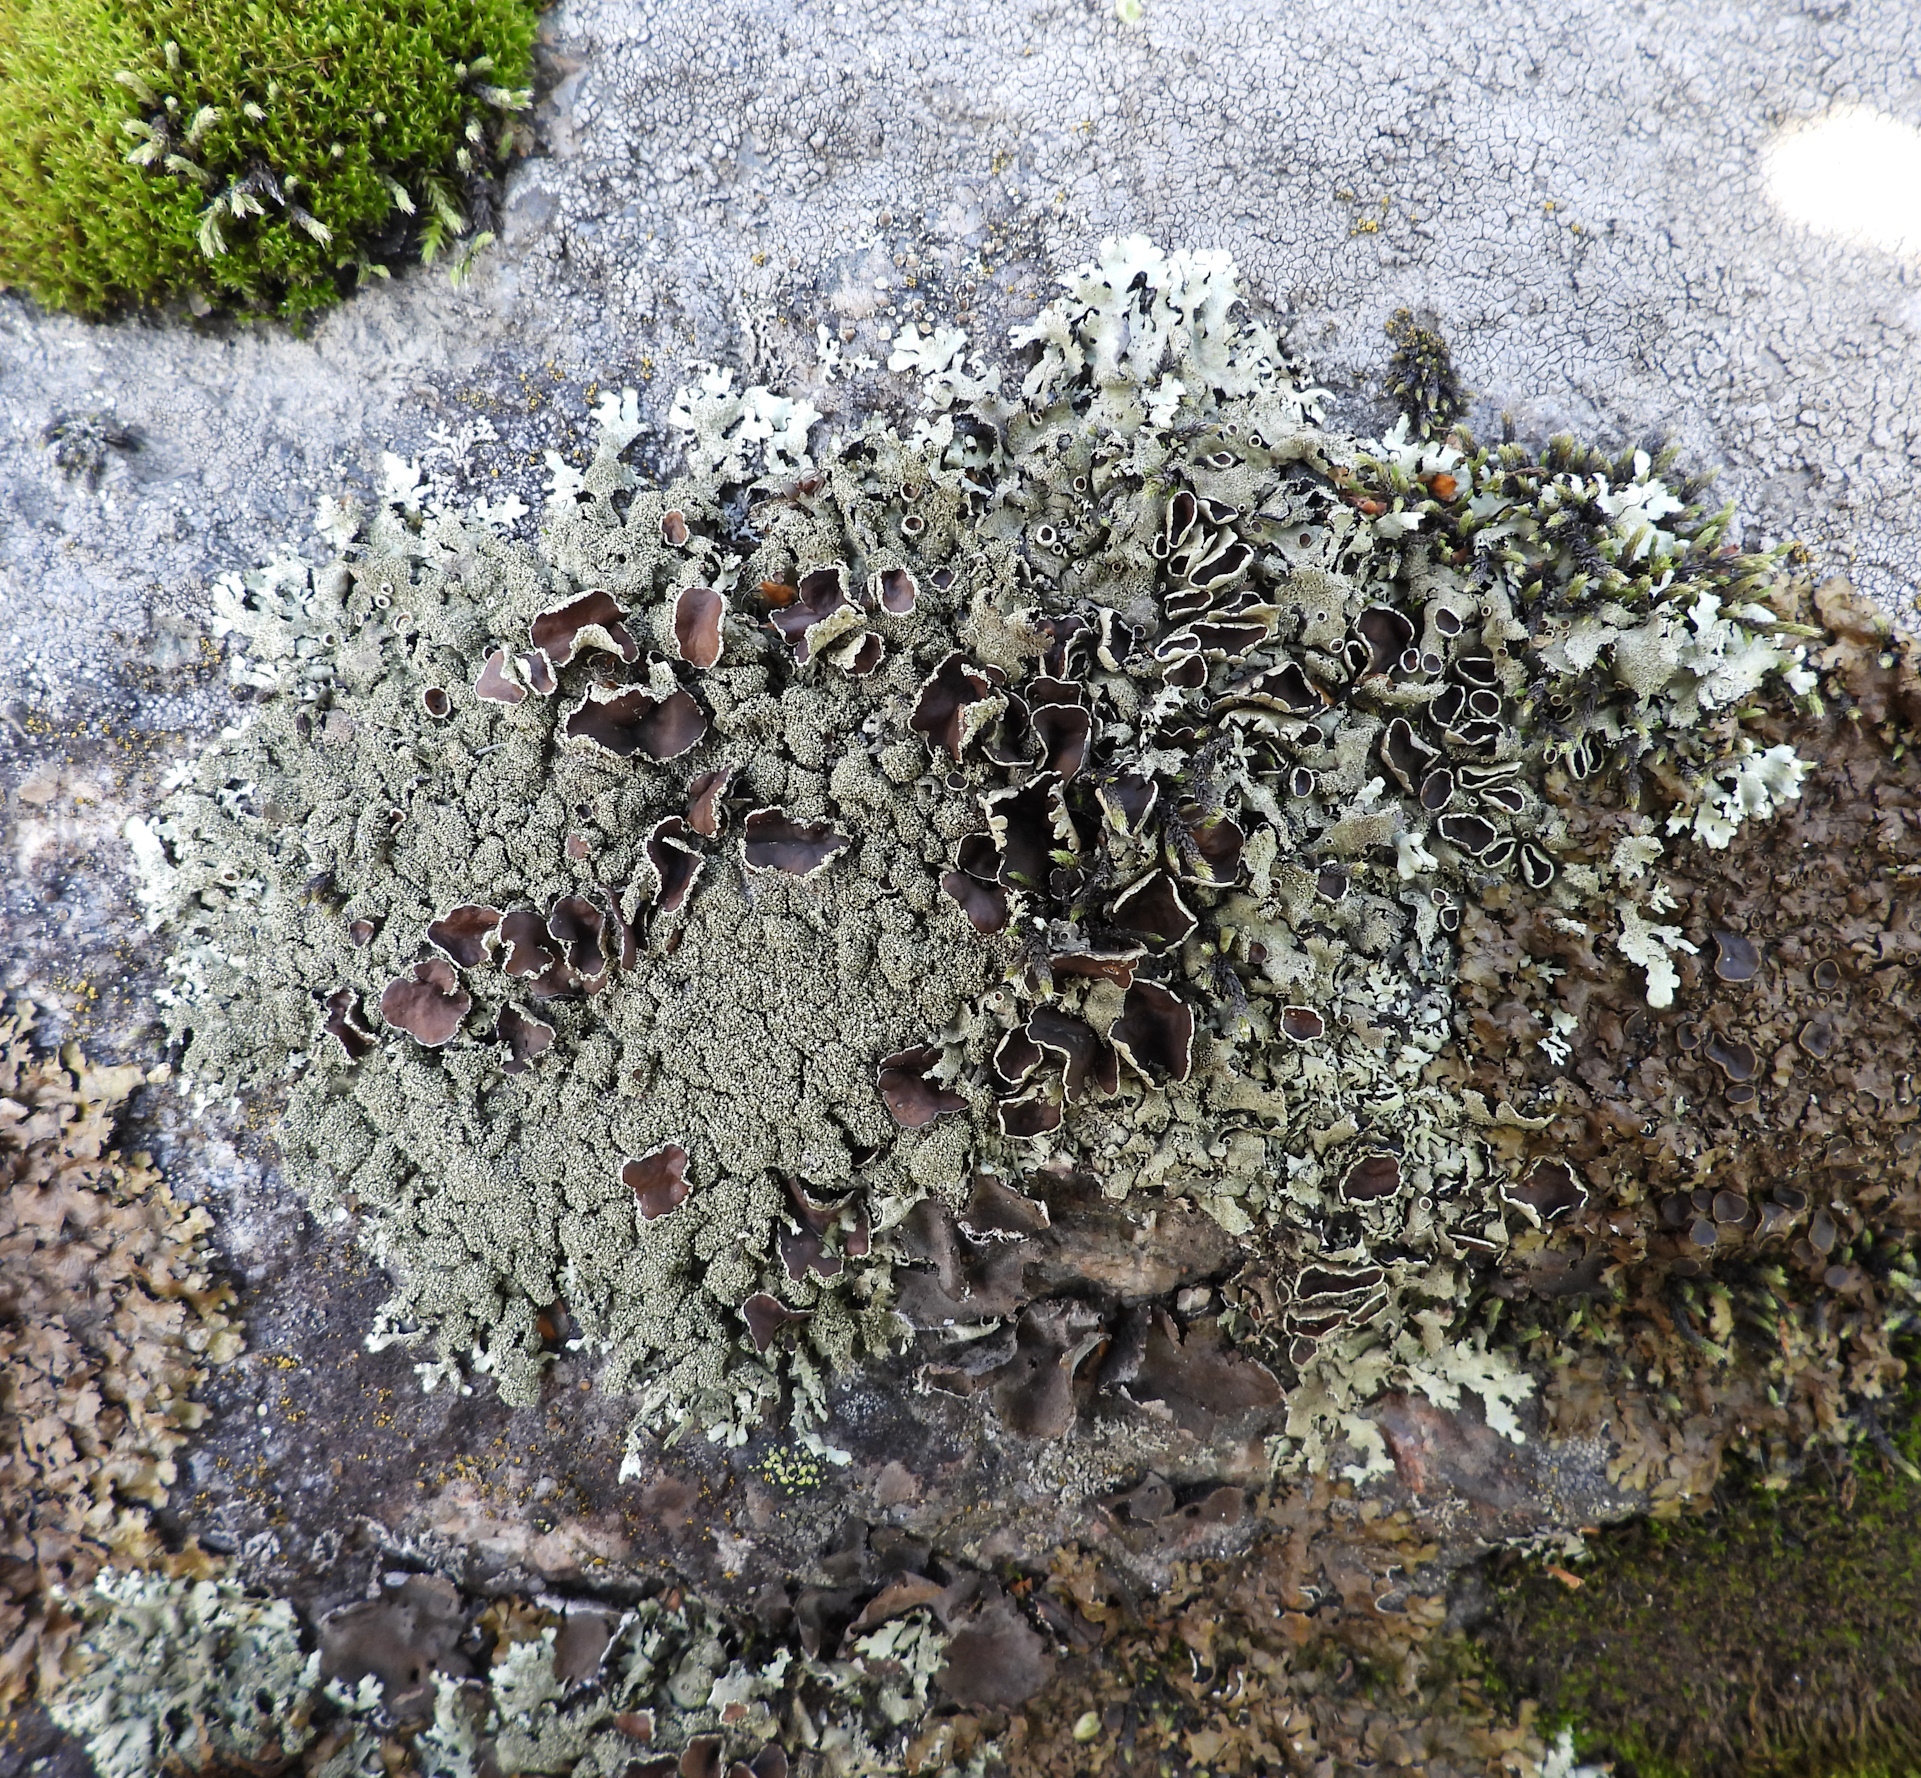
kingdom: Fungi
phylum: Ascomycota
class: Lecanoromycetes
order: Lecanorales
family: Parmeliaceae
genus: Xanthoparmelia
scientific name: Xanthoparmelia conspersa
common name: Peppered rock shield
